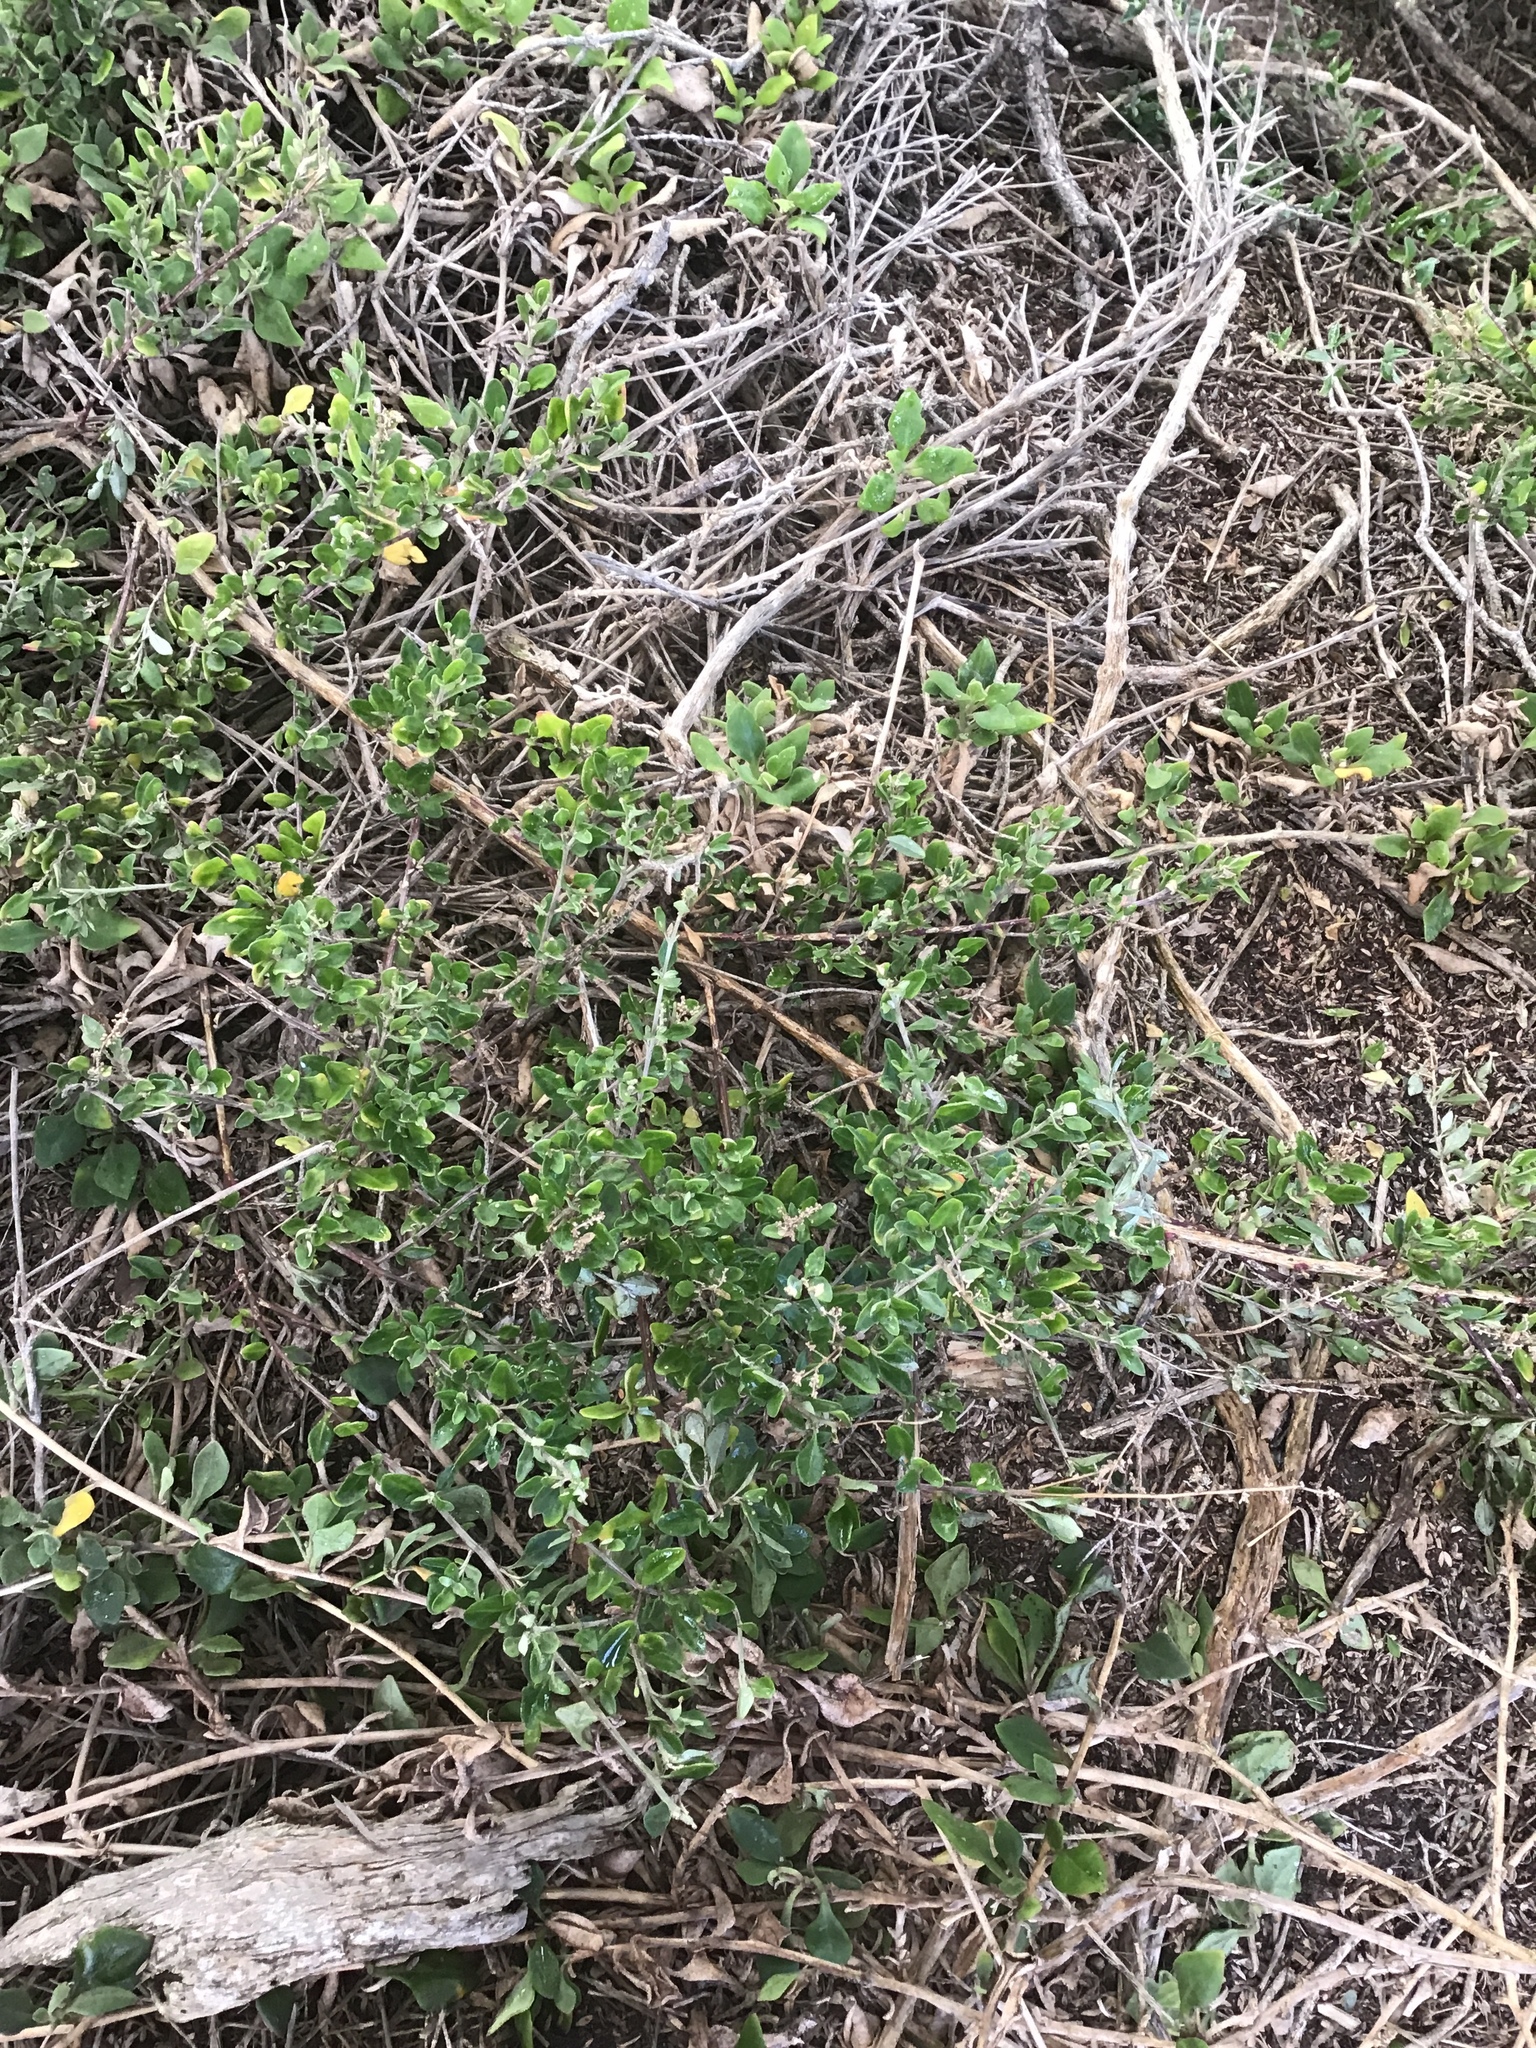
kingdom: Plantae
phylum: Tracheophyta
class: Magnoliopsida
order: Caryophyllales
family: Amaranthaceae
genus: Chenopodium
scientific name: Chenopodium candolleanum
